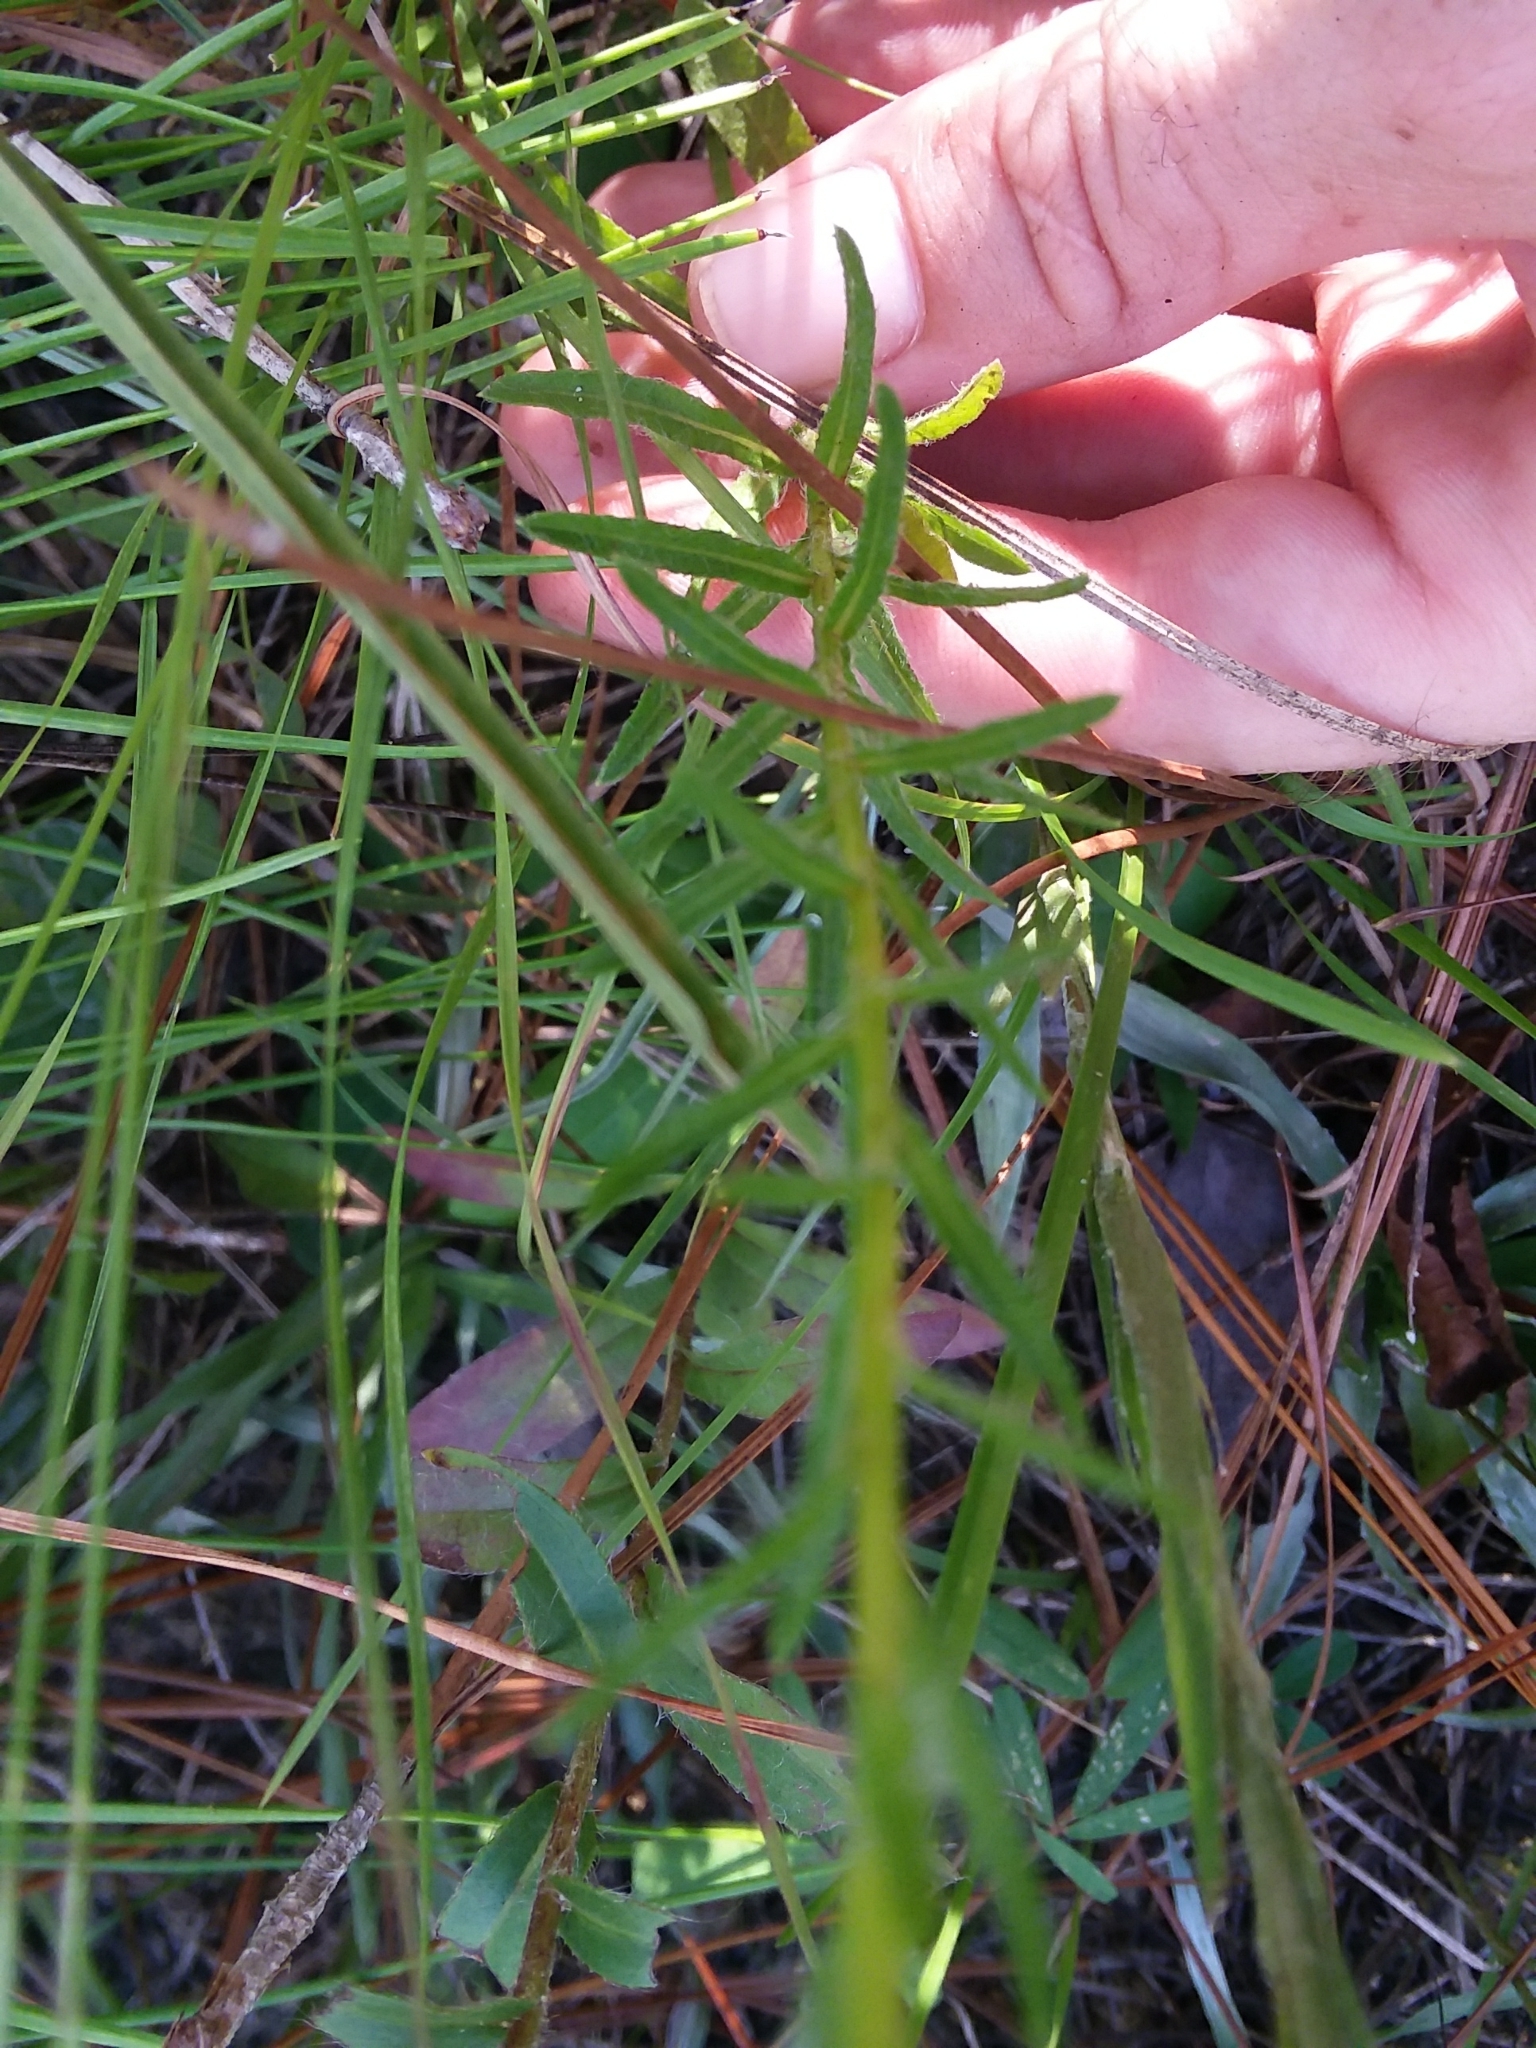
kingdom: Plantae
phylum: Tracheophyta
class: Magnoliopsida
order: Asterales
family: Asteraceae
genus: Chrysopsis
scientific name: Chrysopsis gossypina
